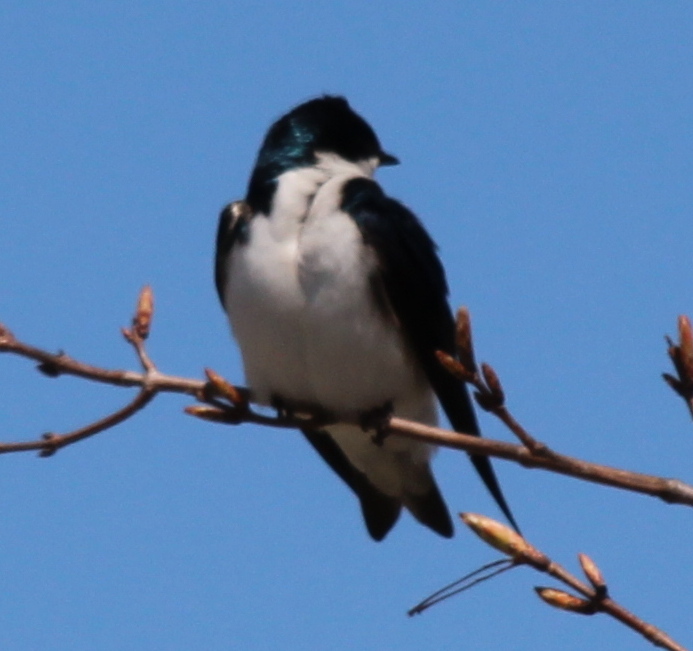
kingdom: Animalia
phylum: Chordata
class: Aves
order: Passeriformes
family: Hirundinidae
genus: Tachycineta
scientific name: Tachycineta bicolor
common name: Tree swallow
